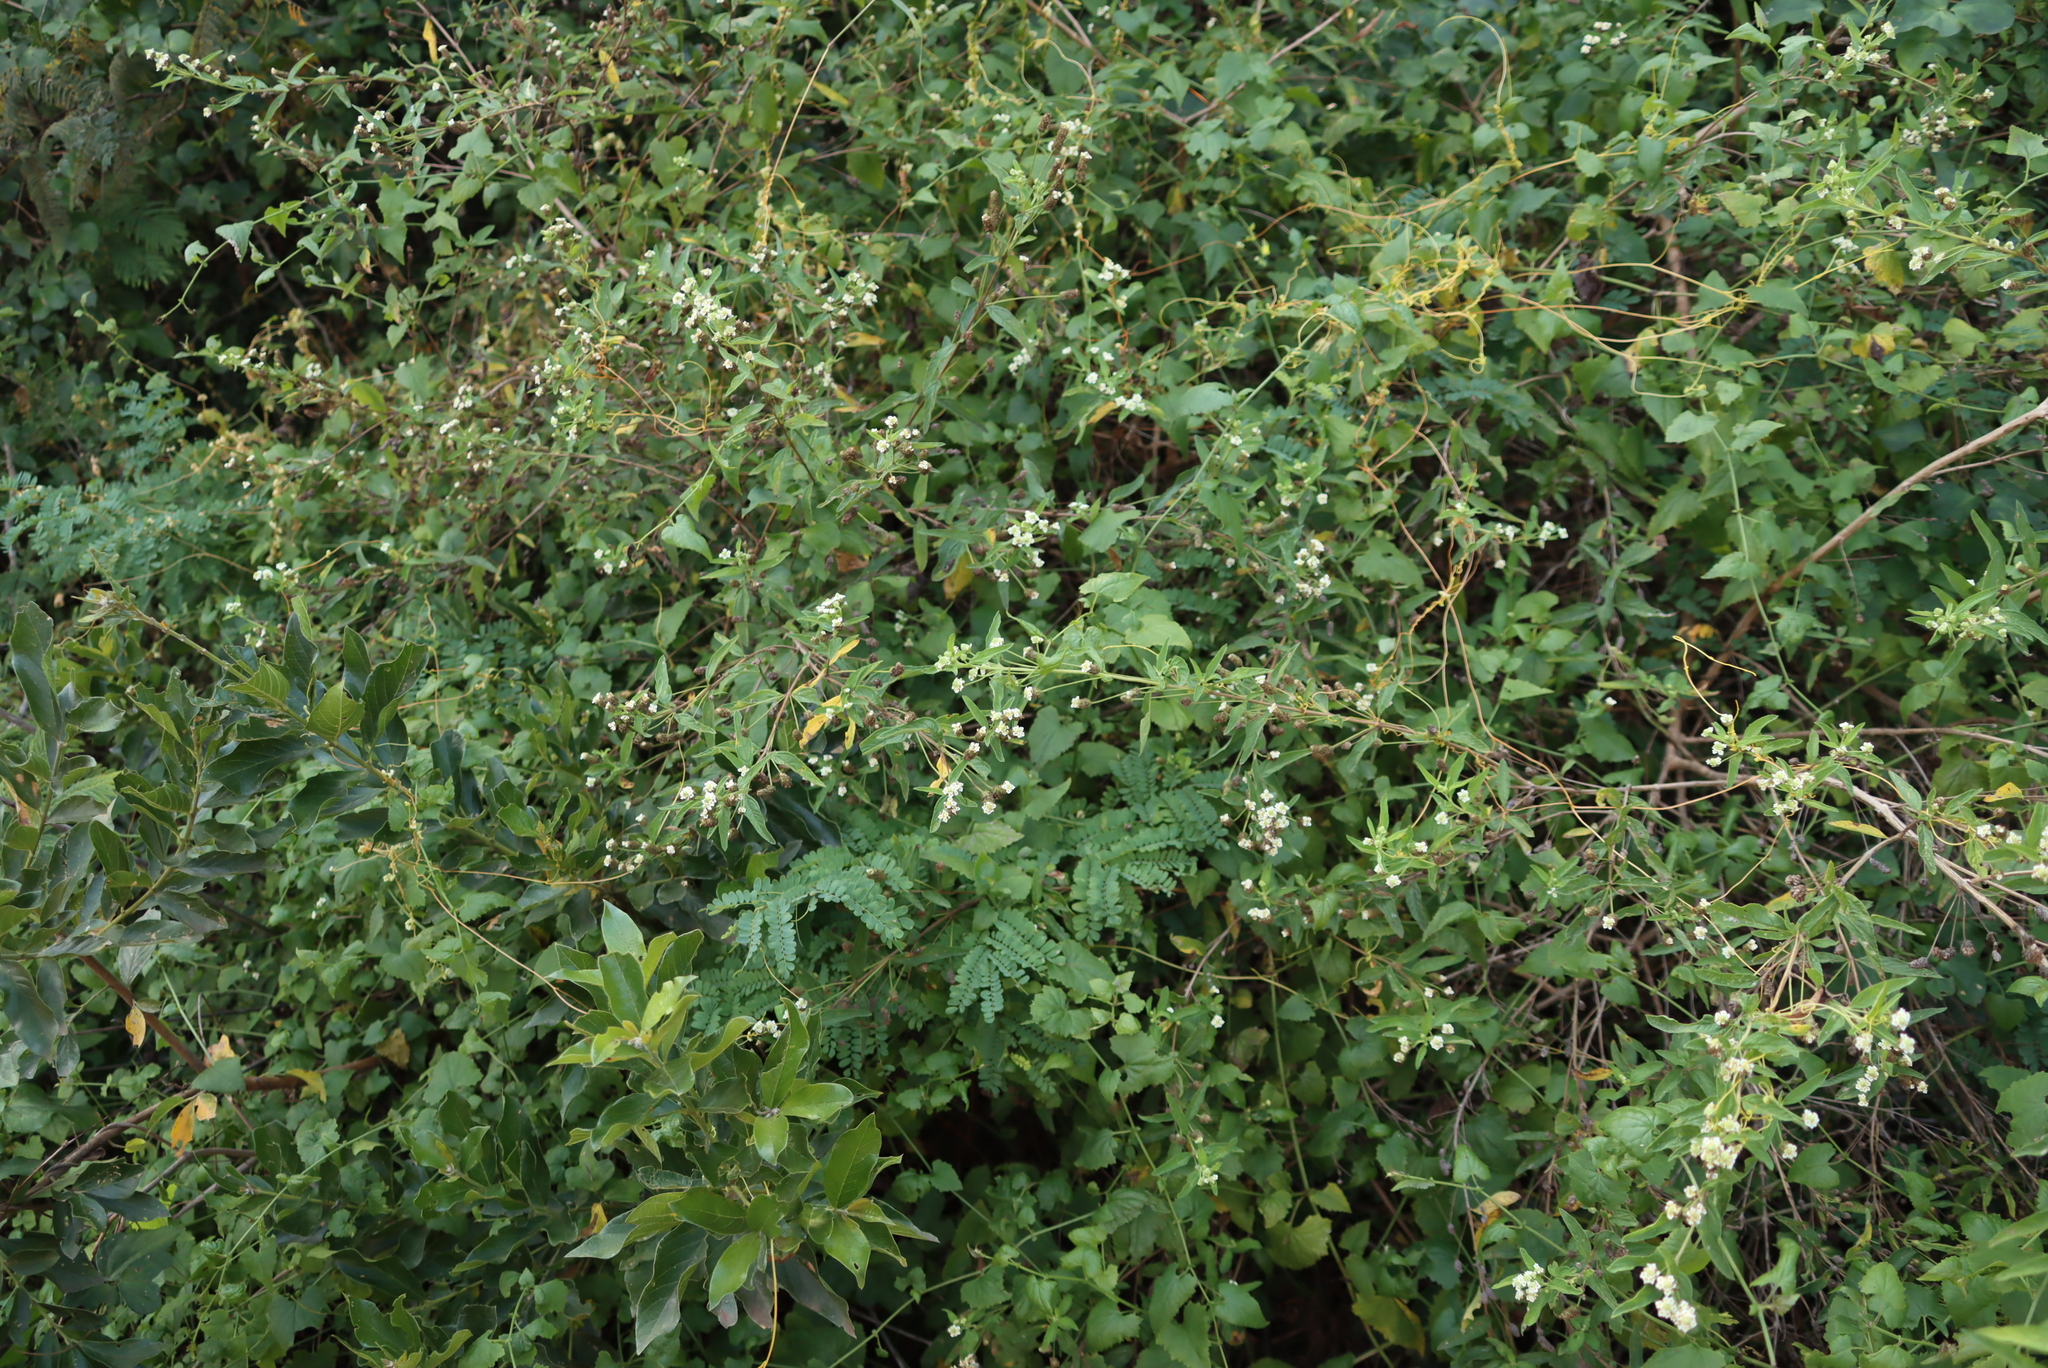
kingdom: Plantae
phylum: Tracheophyta
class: Magnoliopsida
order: Lamiales
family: Verbenaceae
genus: Lippia
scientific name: Lippia javanica
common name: Lemonbush
